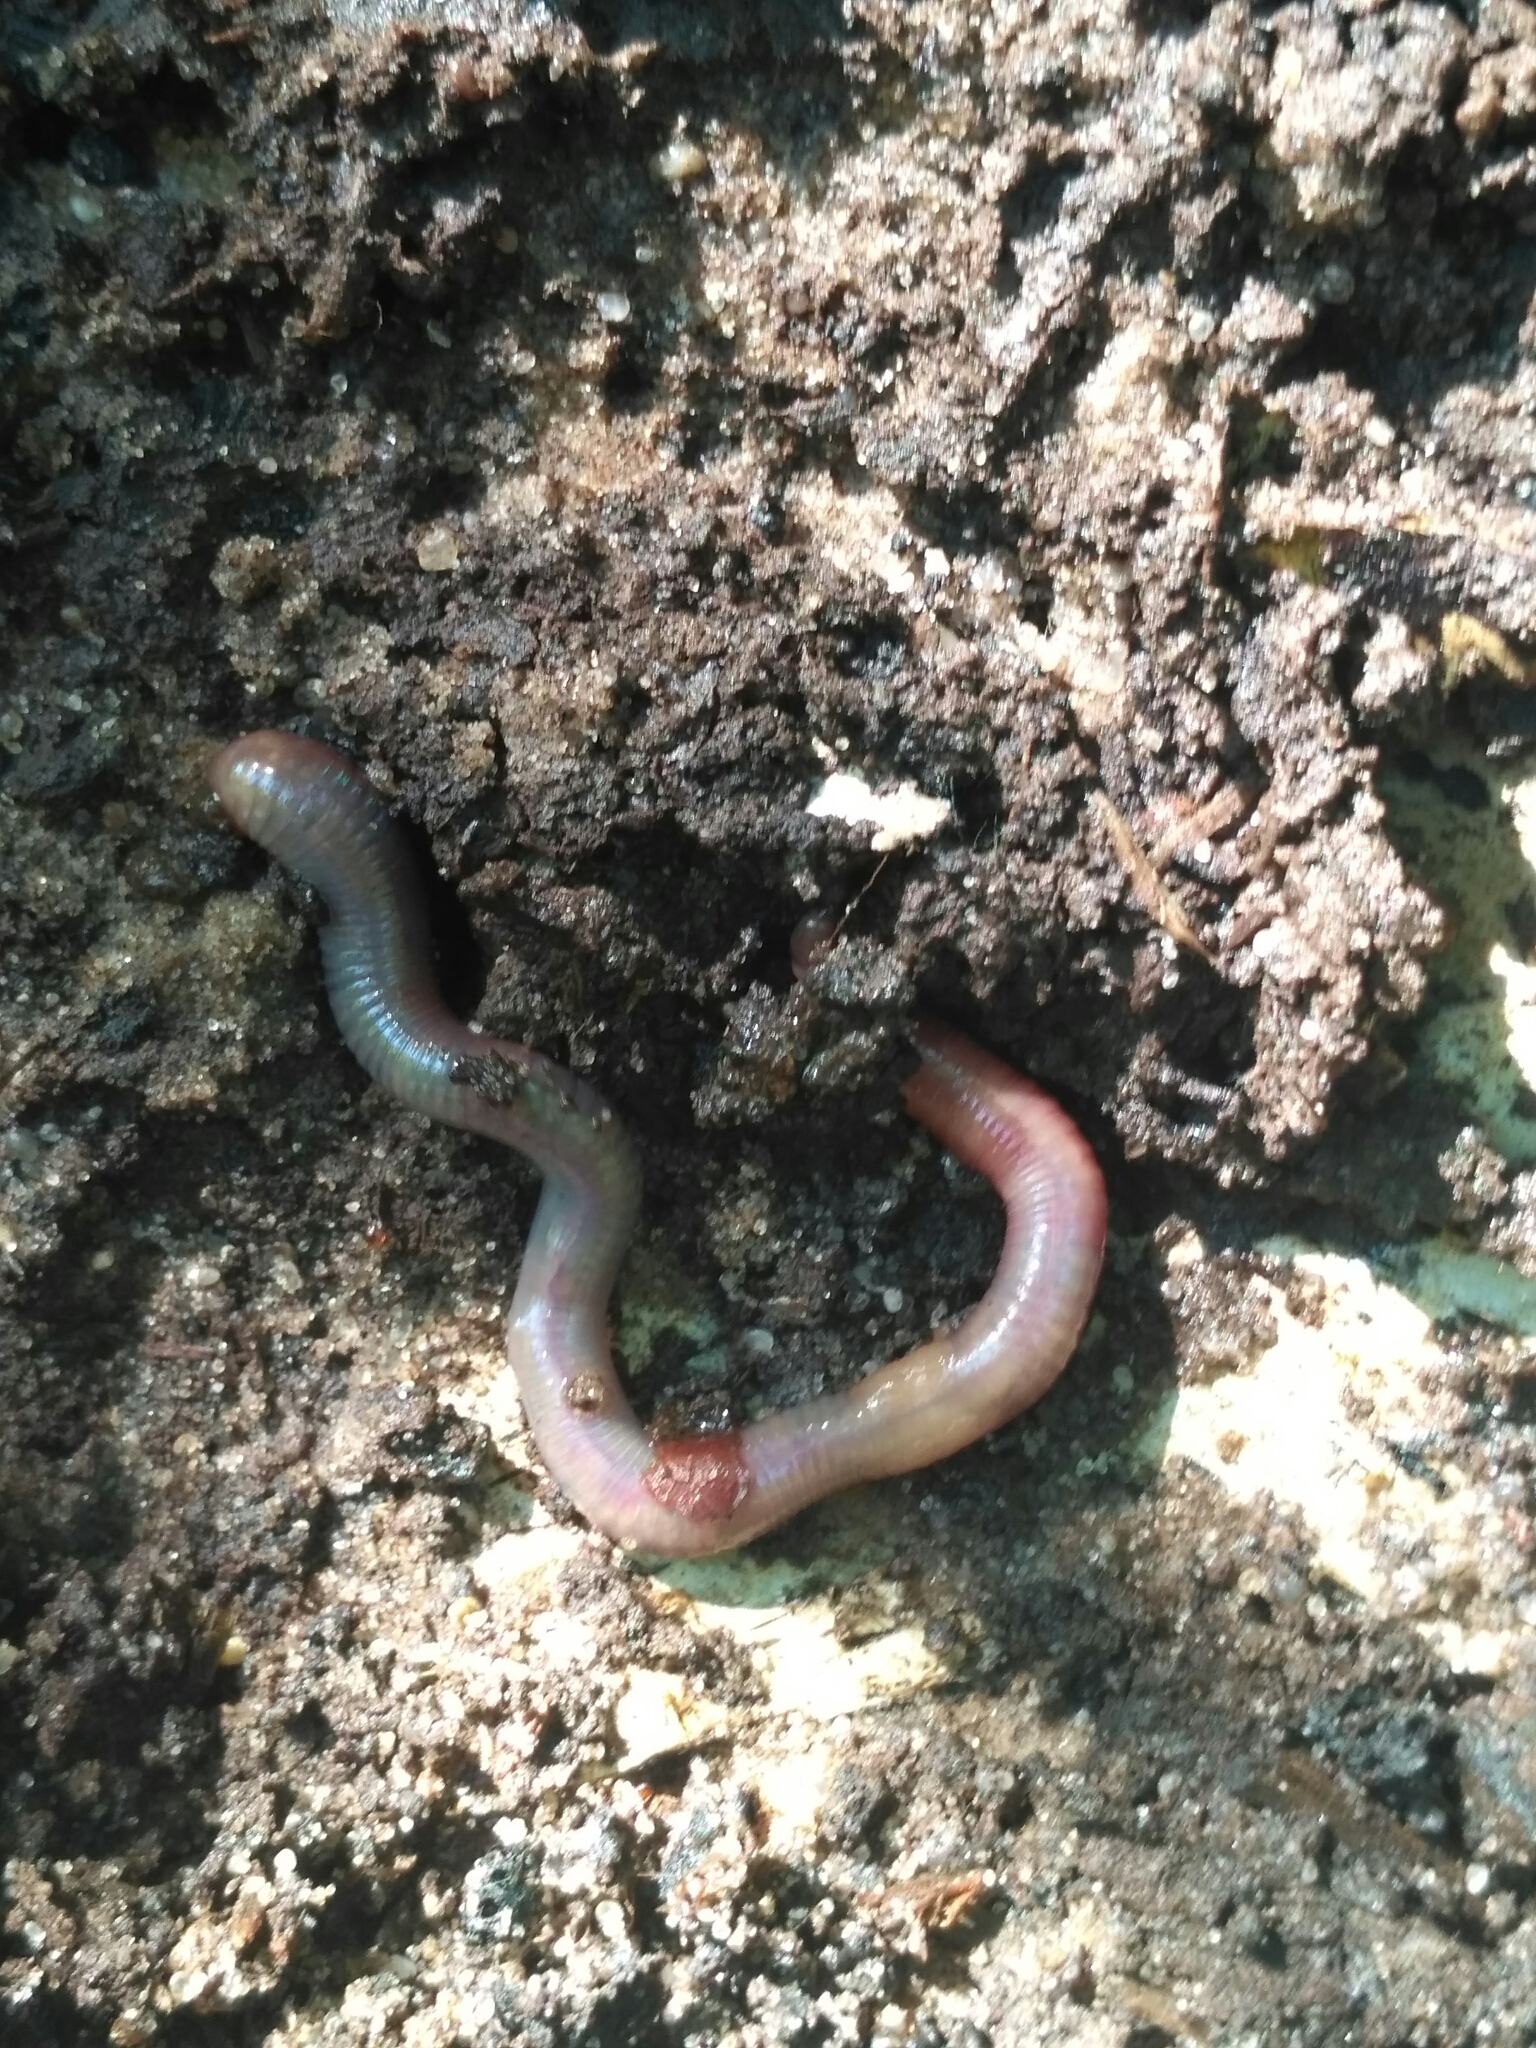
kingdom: Animalia
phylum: Annelida
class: Clitellata
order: Crassiclitellata
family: Lumbricidae
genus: Aporrectodea
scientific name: Aporrectodea caliginosa
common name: Grey worm
